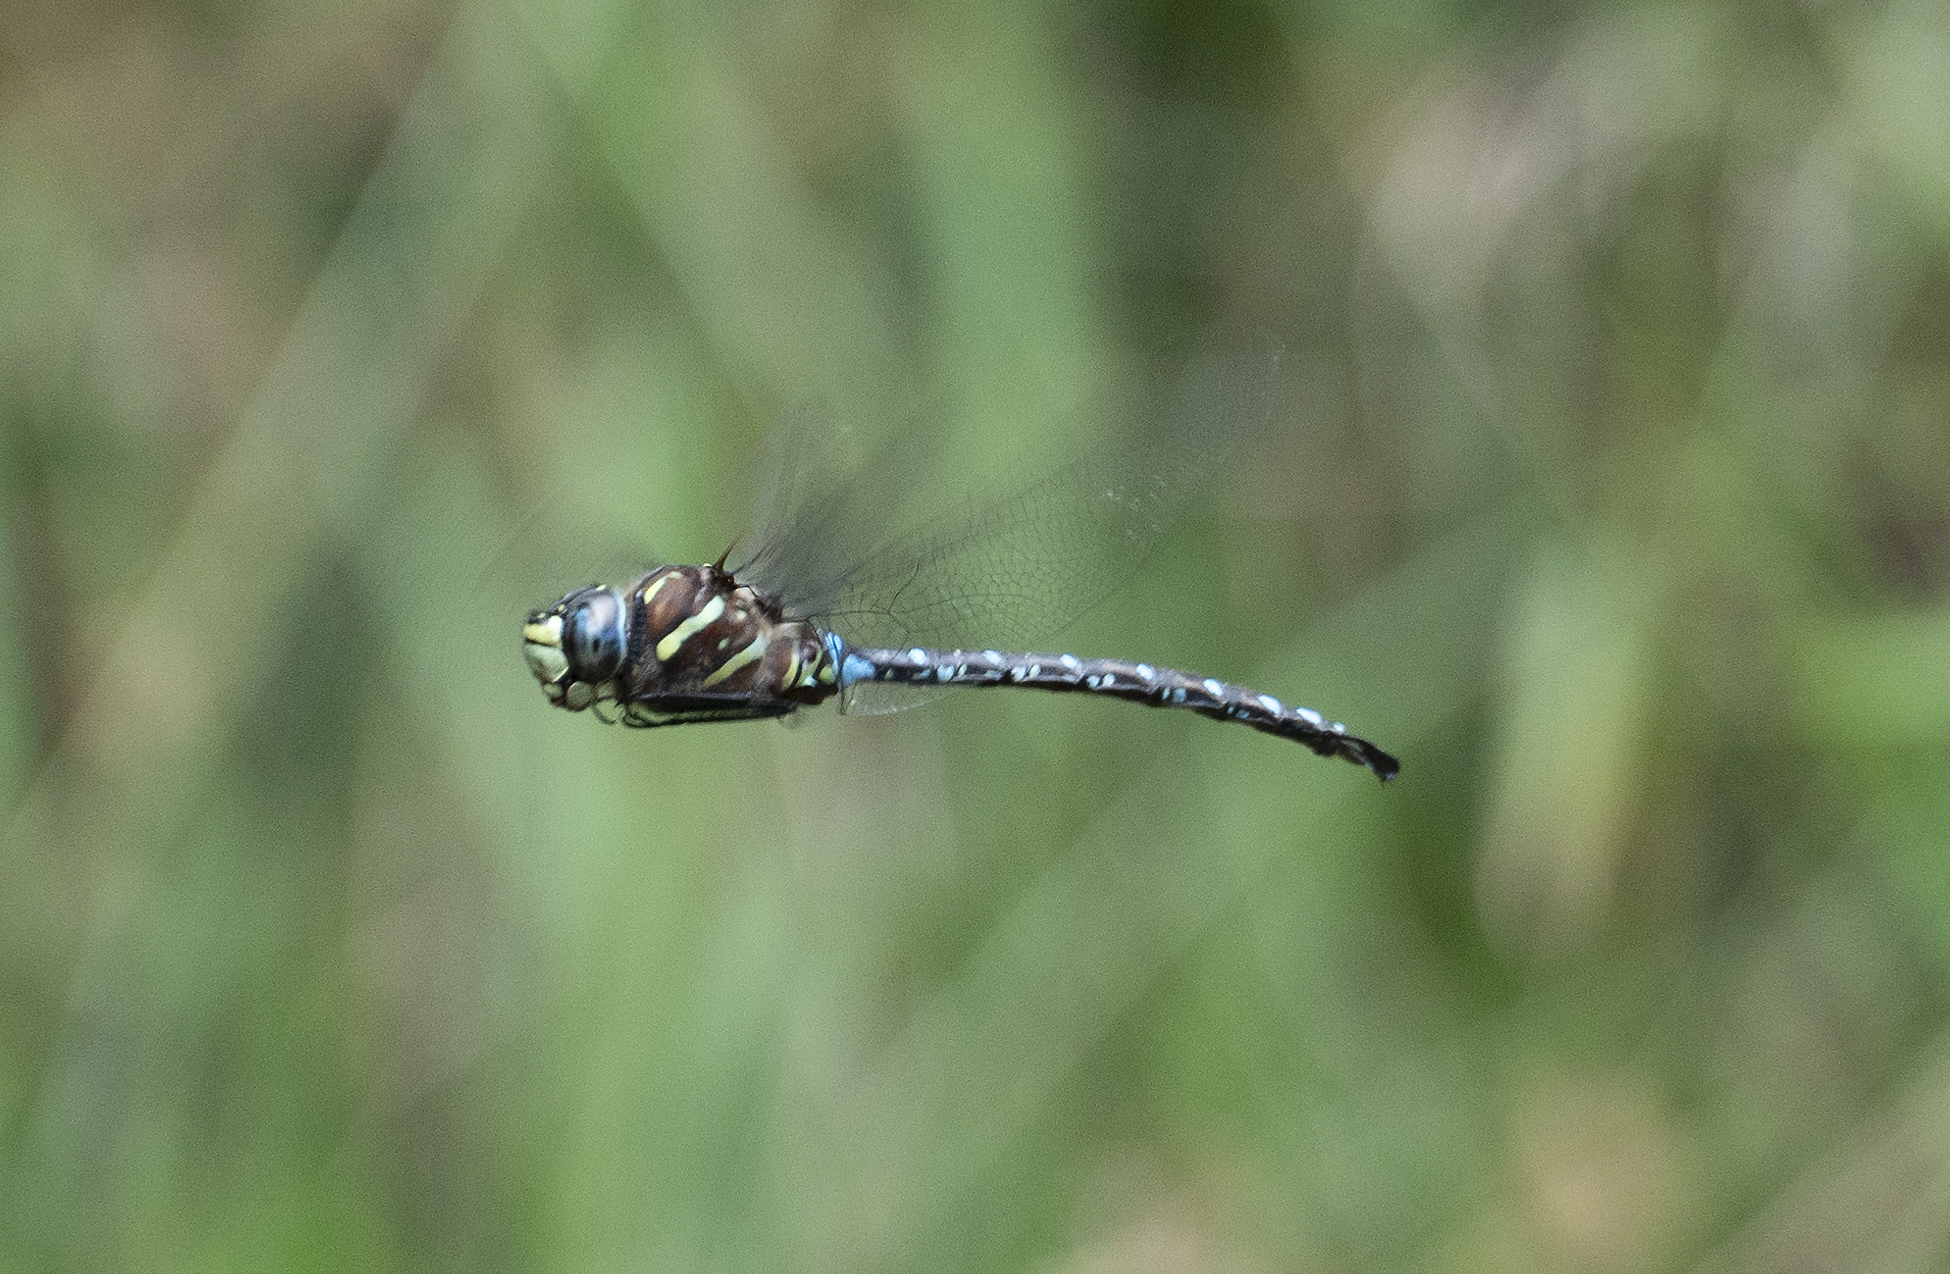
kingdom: Animalia
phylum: Arthropoda
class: Insecta
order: Odonata
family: Aeshnidae
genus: Aeshna
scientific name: Aeshna palmata
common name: Paddle-tailed darner
